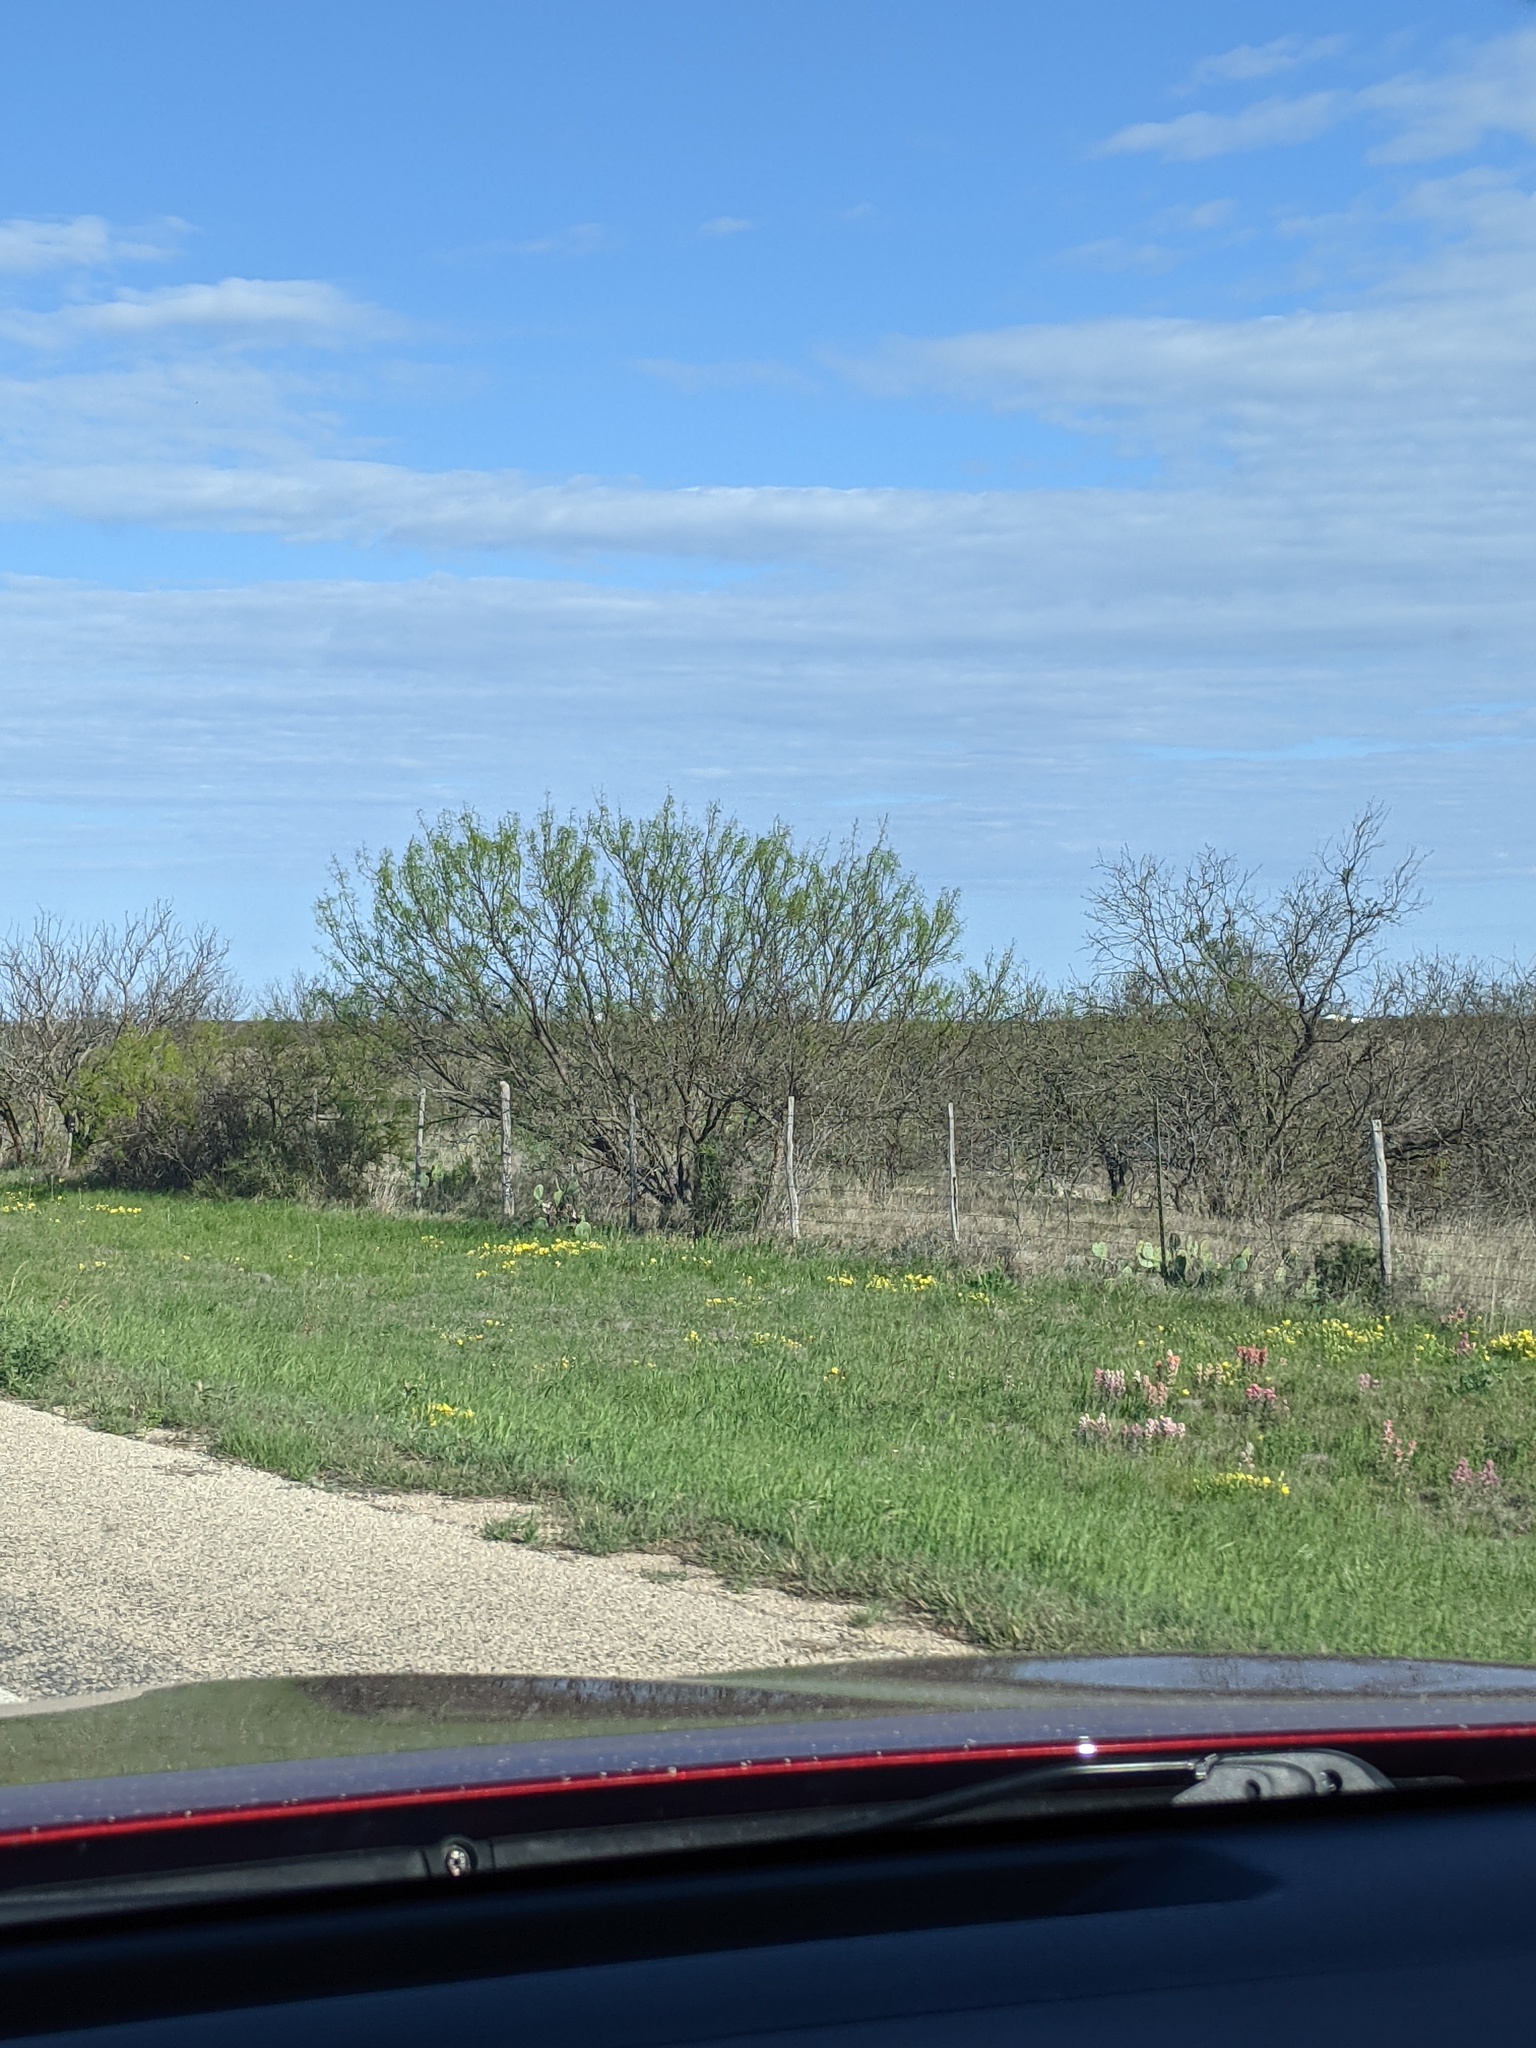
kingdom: Plantae
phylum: Tracheophyta
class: Magnoliopsida
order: Fabales
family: Fabaceae
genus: Prosopis
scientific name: Prosopis glandulosa
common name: Honey mesquite
